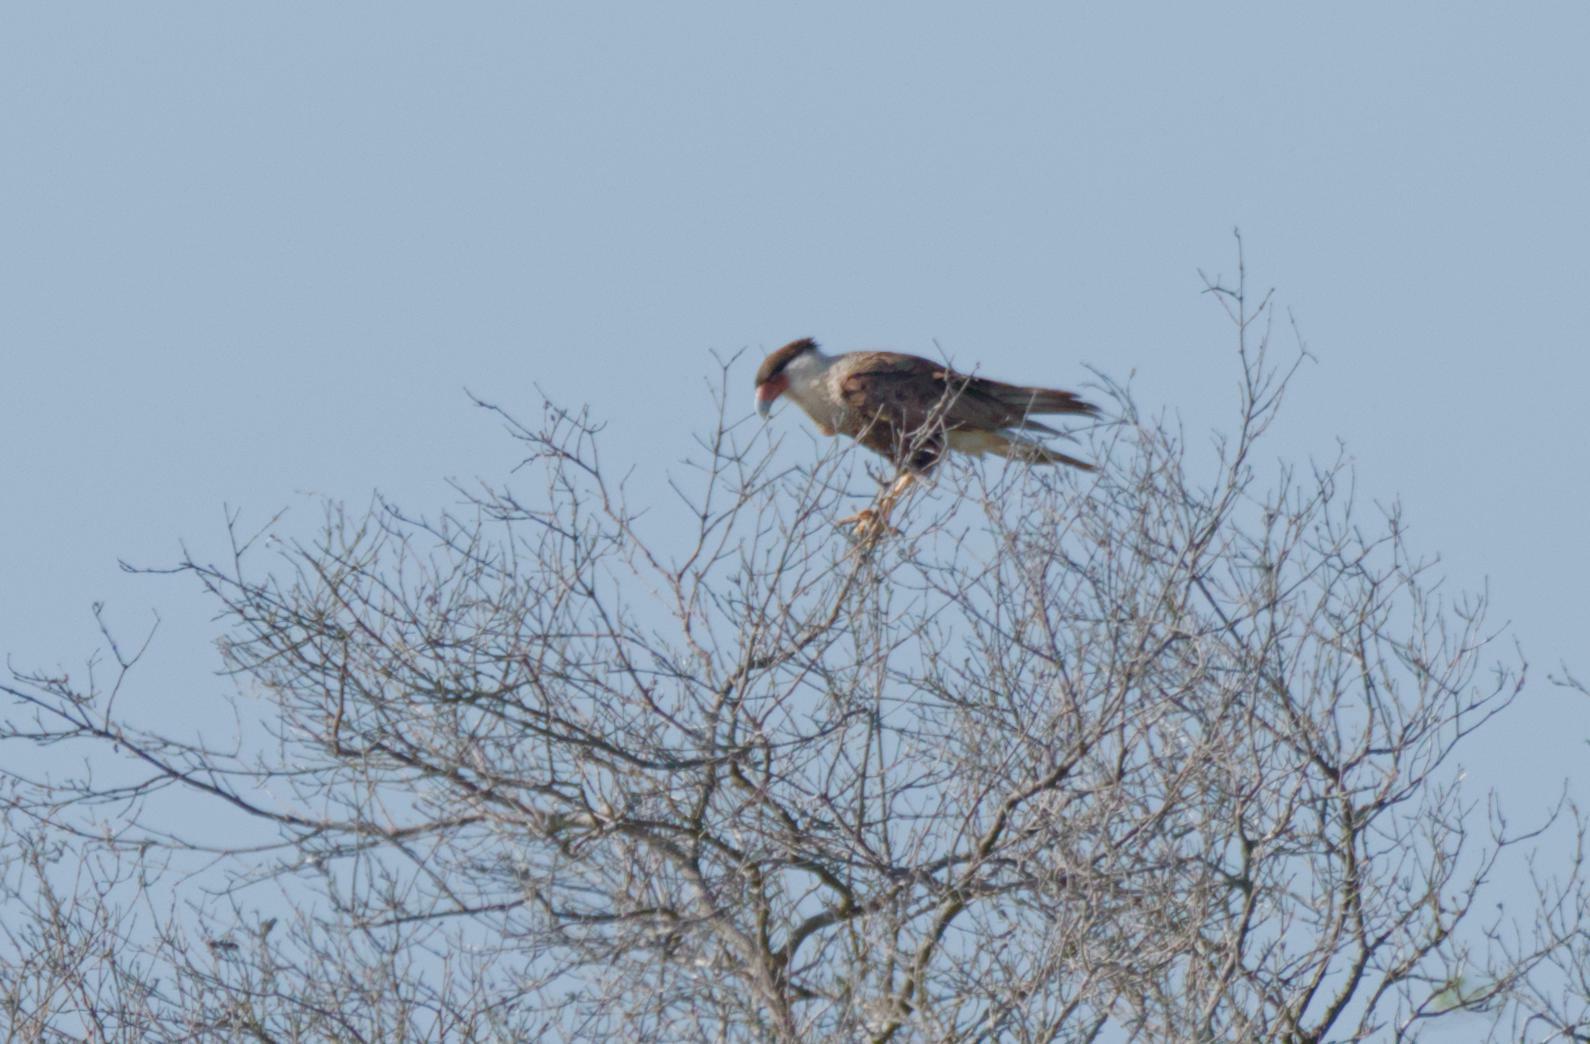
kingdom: Animalia
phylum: Chordata
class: Aves
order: Falconiformes
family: Falconidae
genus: Caracara
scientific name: Caracara plancus
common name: Southern caracara
